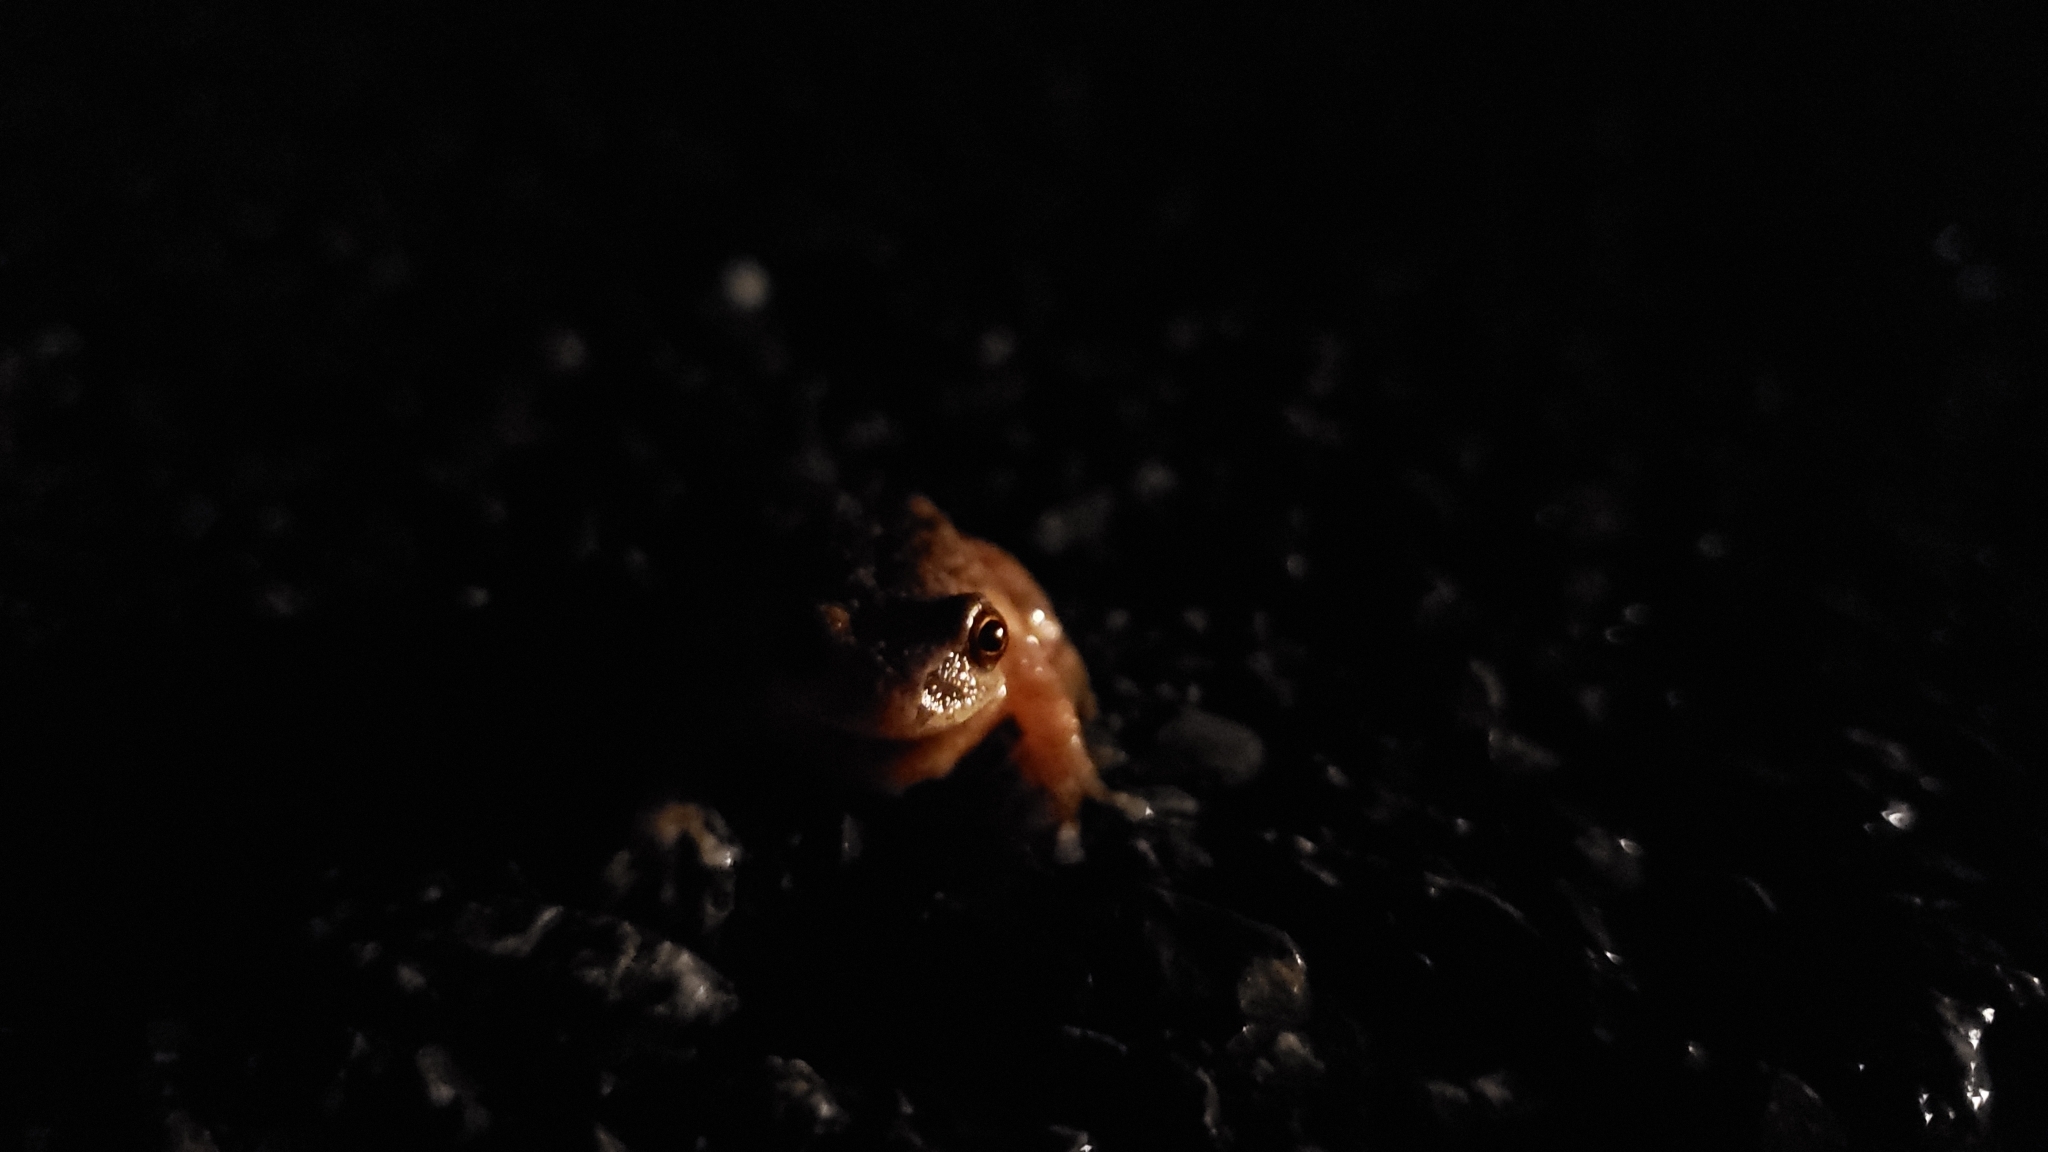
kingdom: Animalia
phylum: Chordata
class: Amphibia
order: Anura
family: Hylidae
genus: Pseudacris
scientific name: Pseudacris crucifer
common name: Spring peeper
